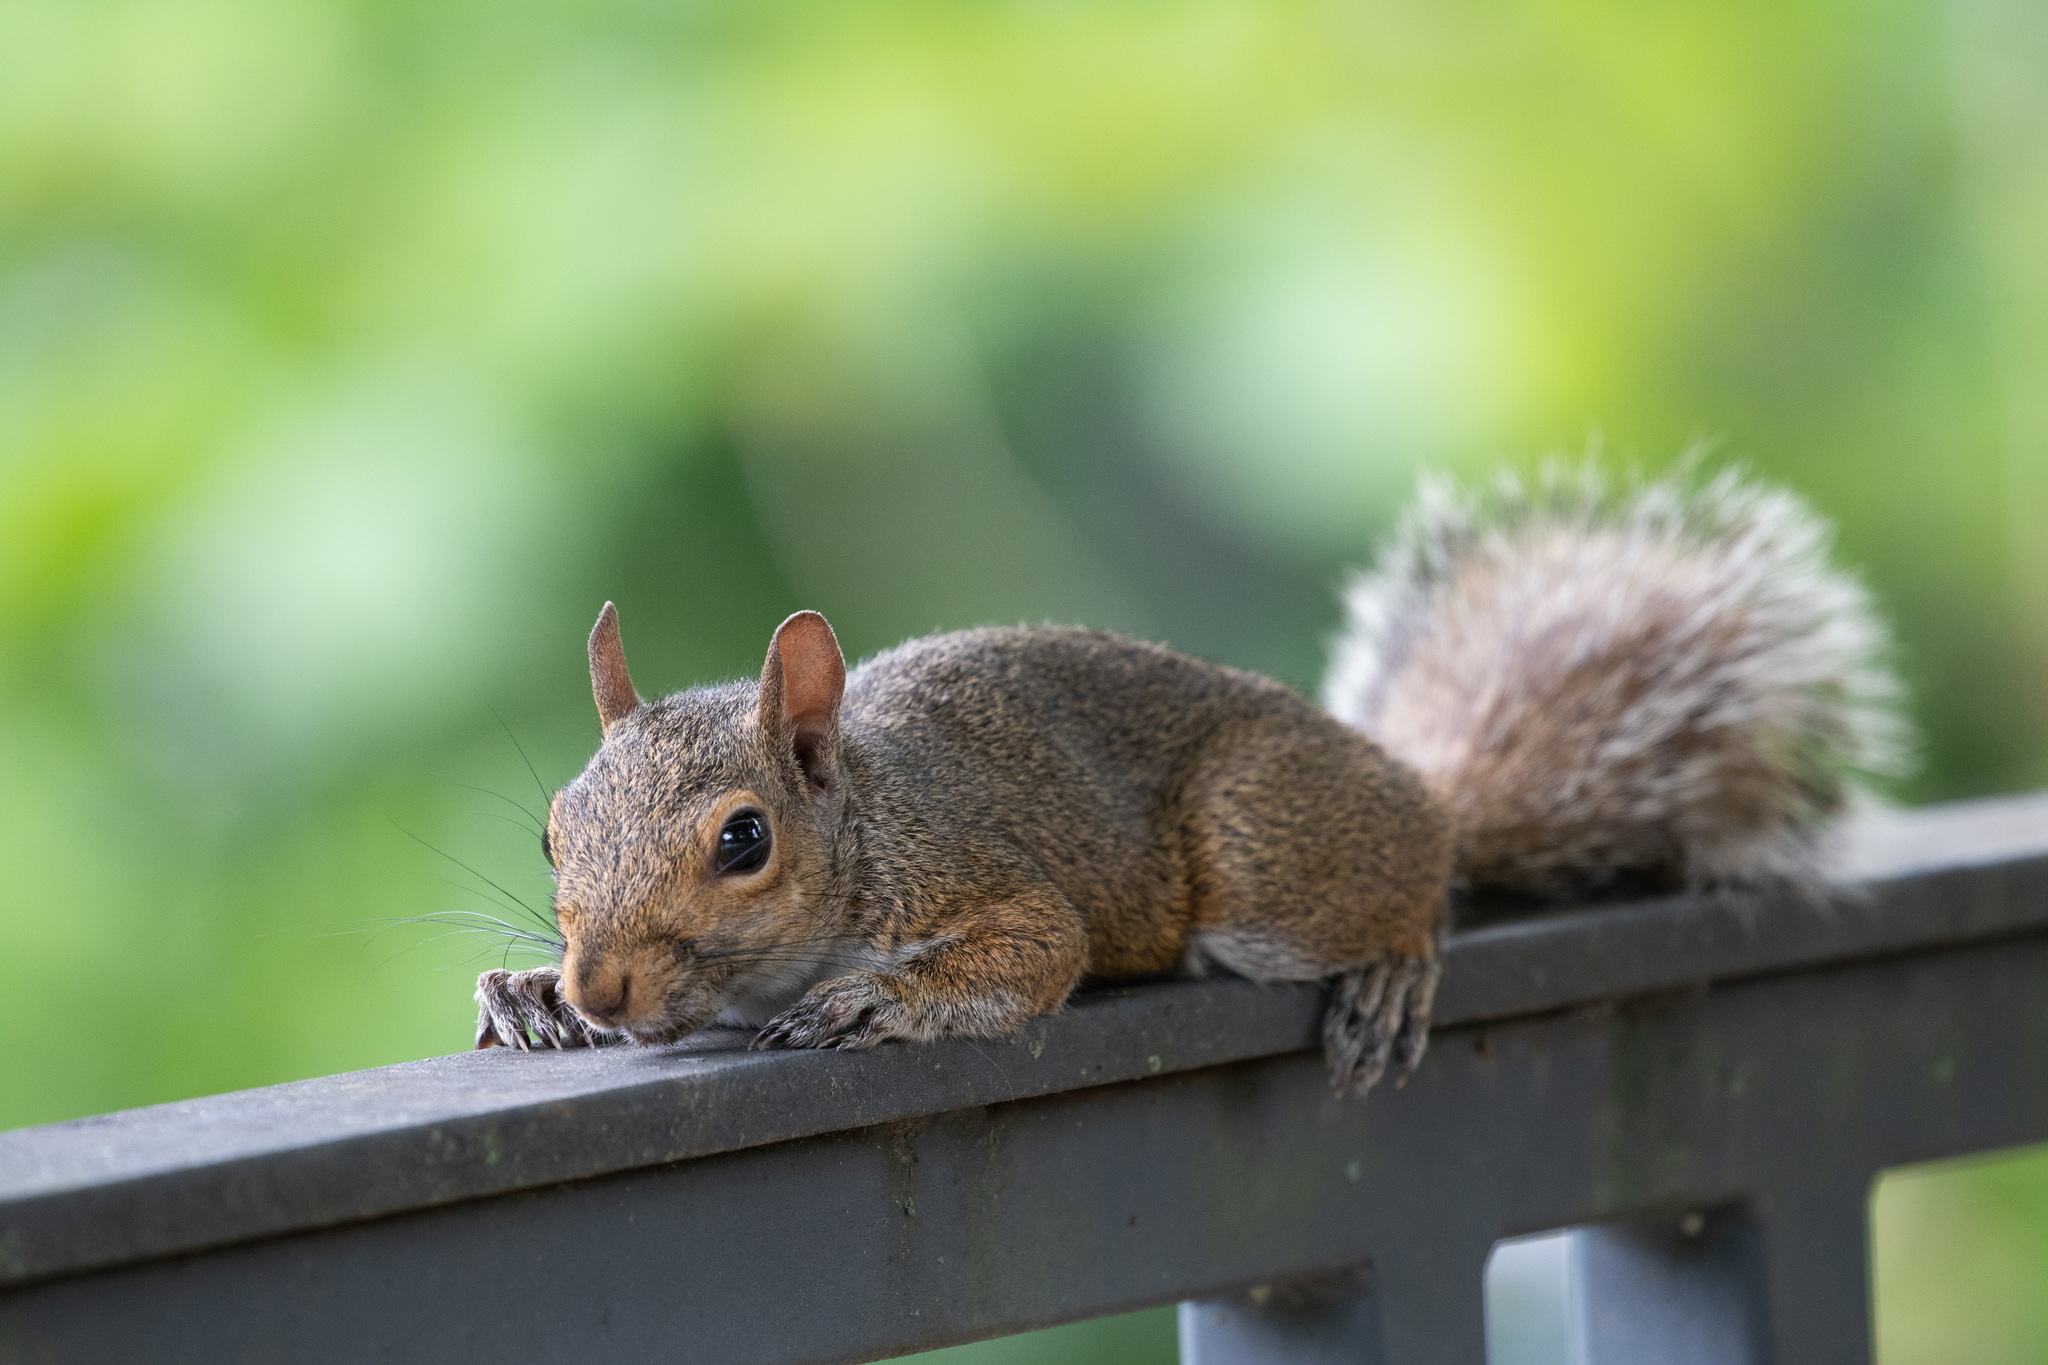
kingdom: Animalia
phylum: Chordata
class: Mammalia
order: Rodentia
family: Sciuridae
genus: Sciurus
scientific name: Sciurus carolinensis
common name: Eastern gray squirrel
